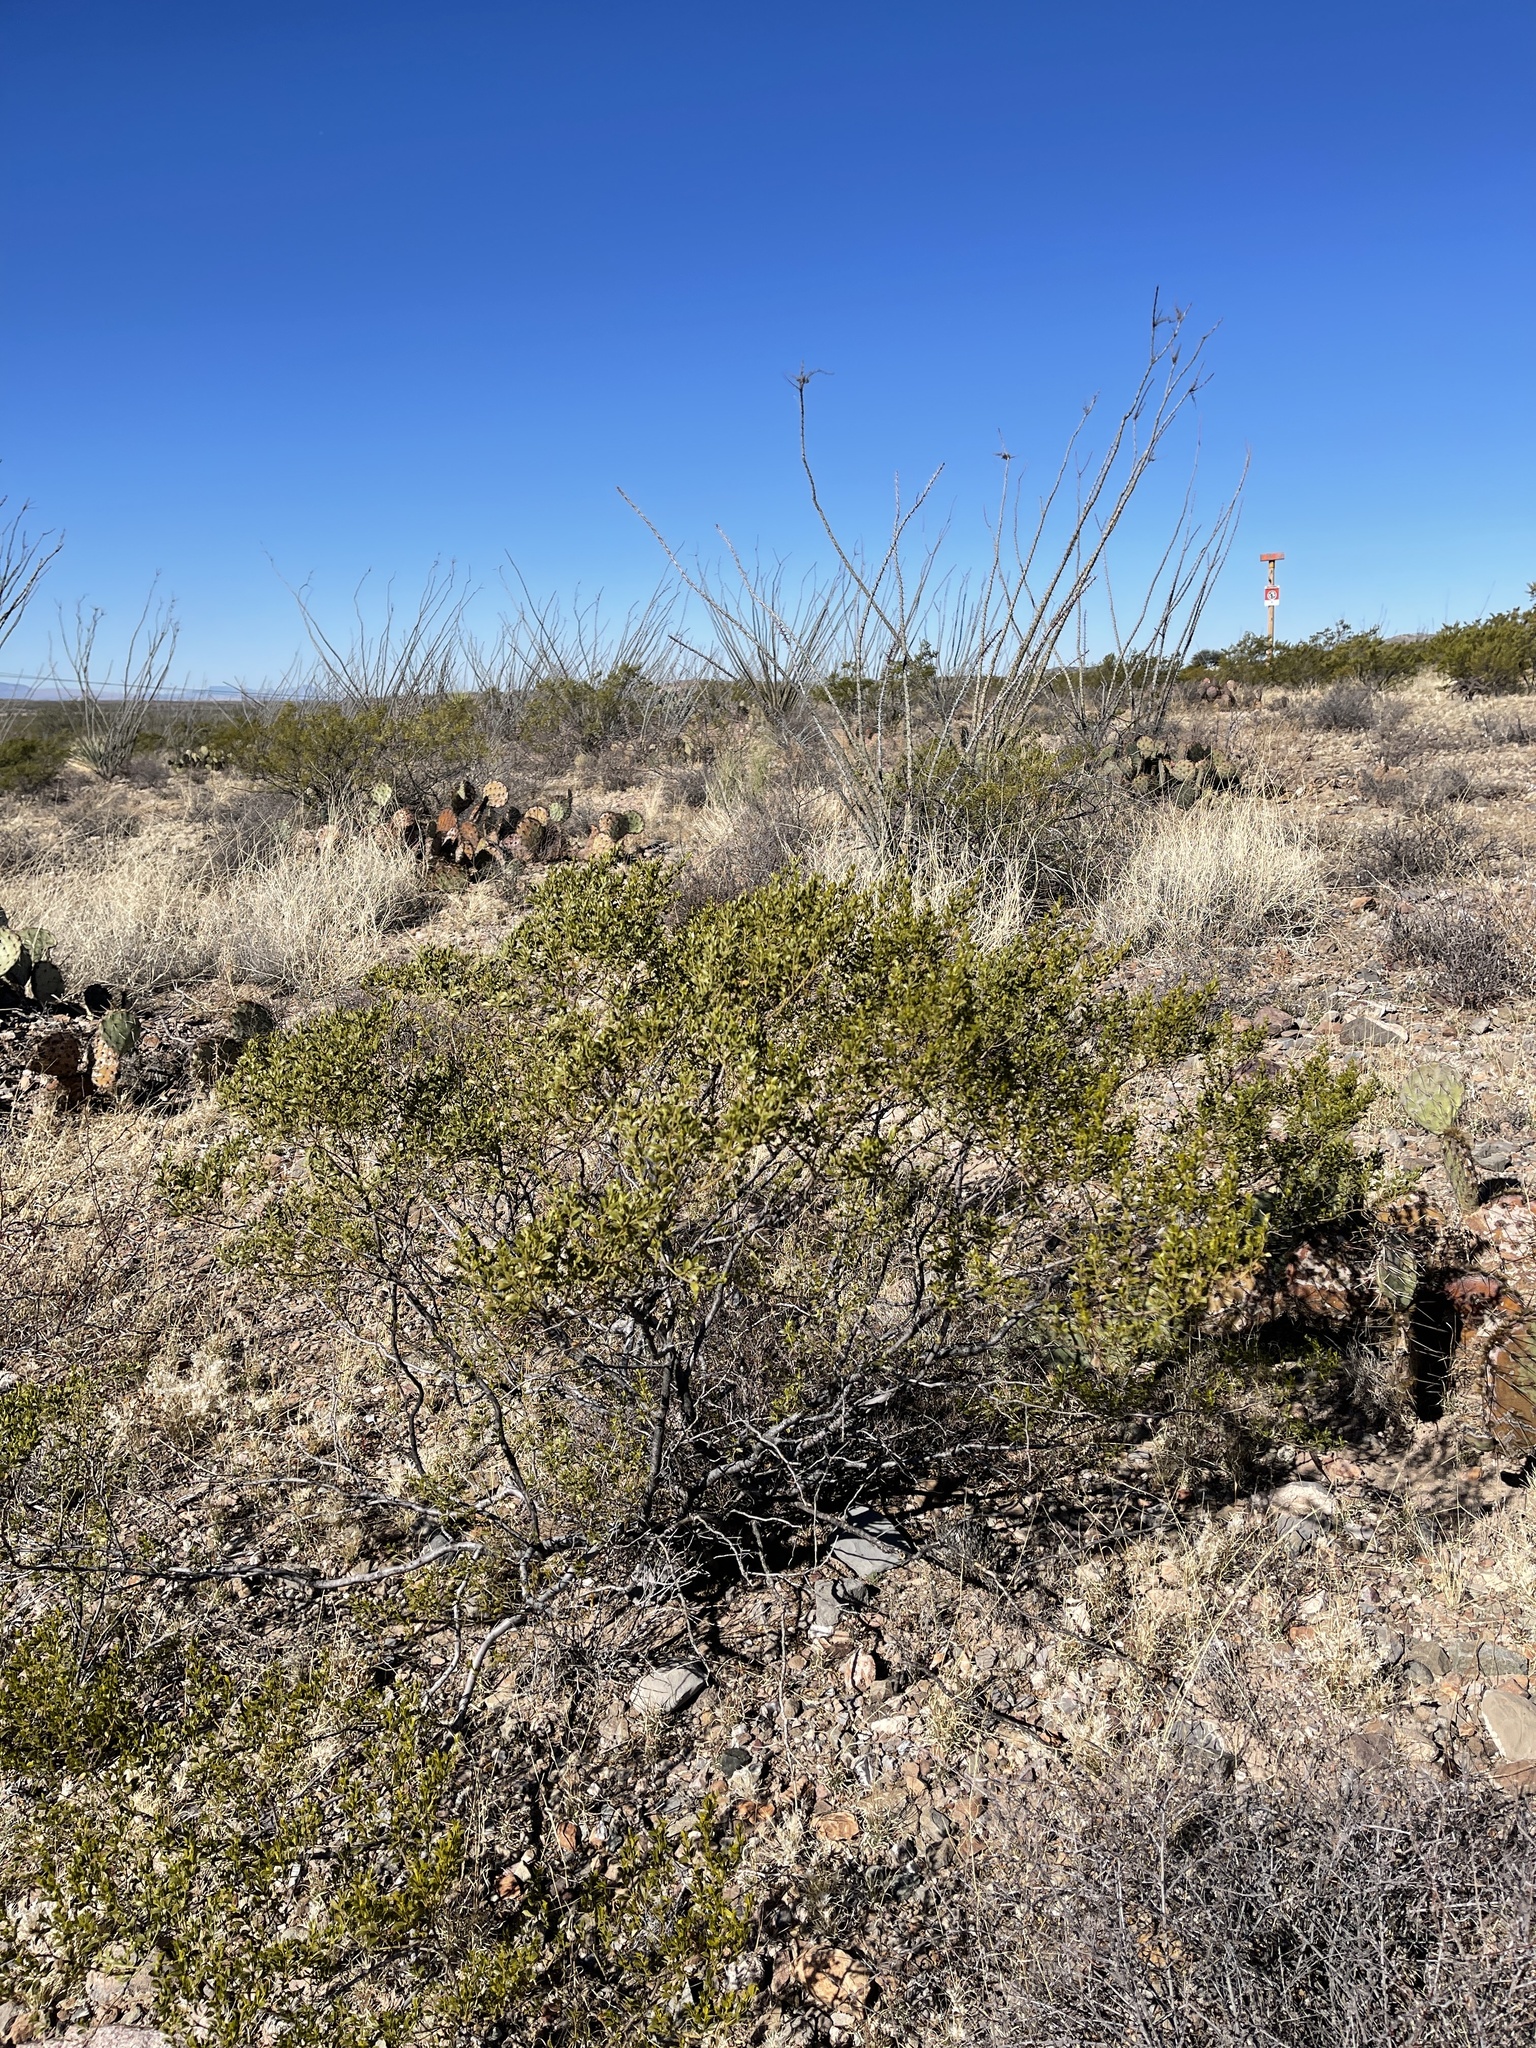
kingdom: Plantae
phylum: Tracheophyta
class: Magnoliopsida
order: Zygophyllales
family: Zygophyllaceae
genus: Larrea
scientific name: Larrea tridentata
